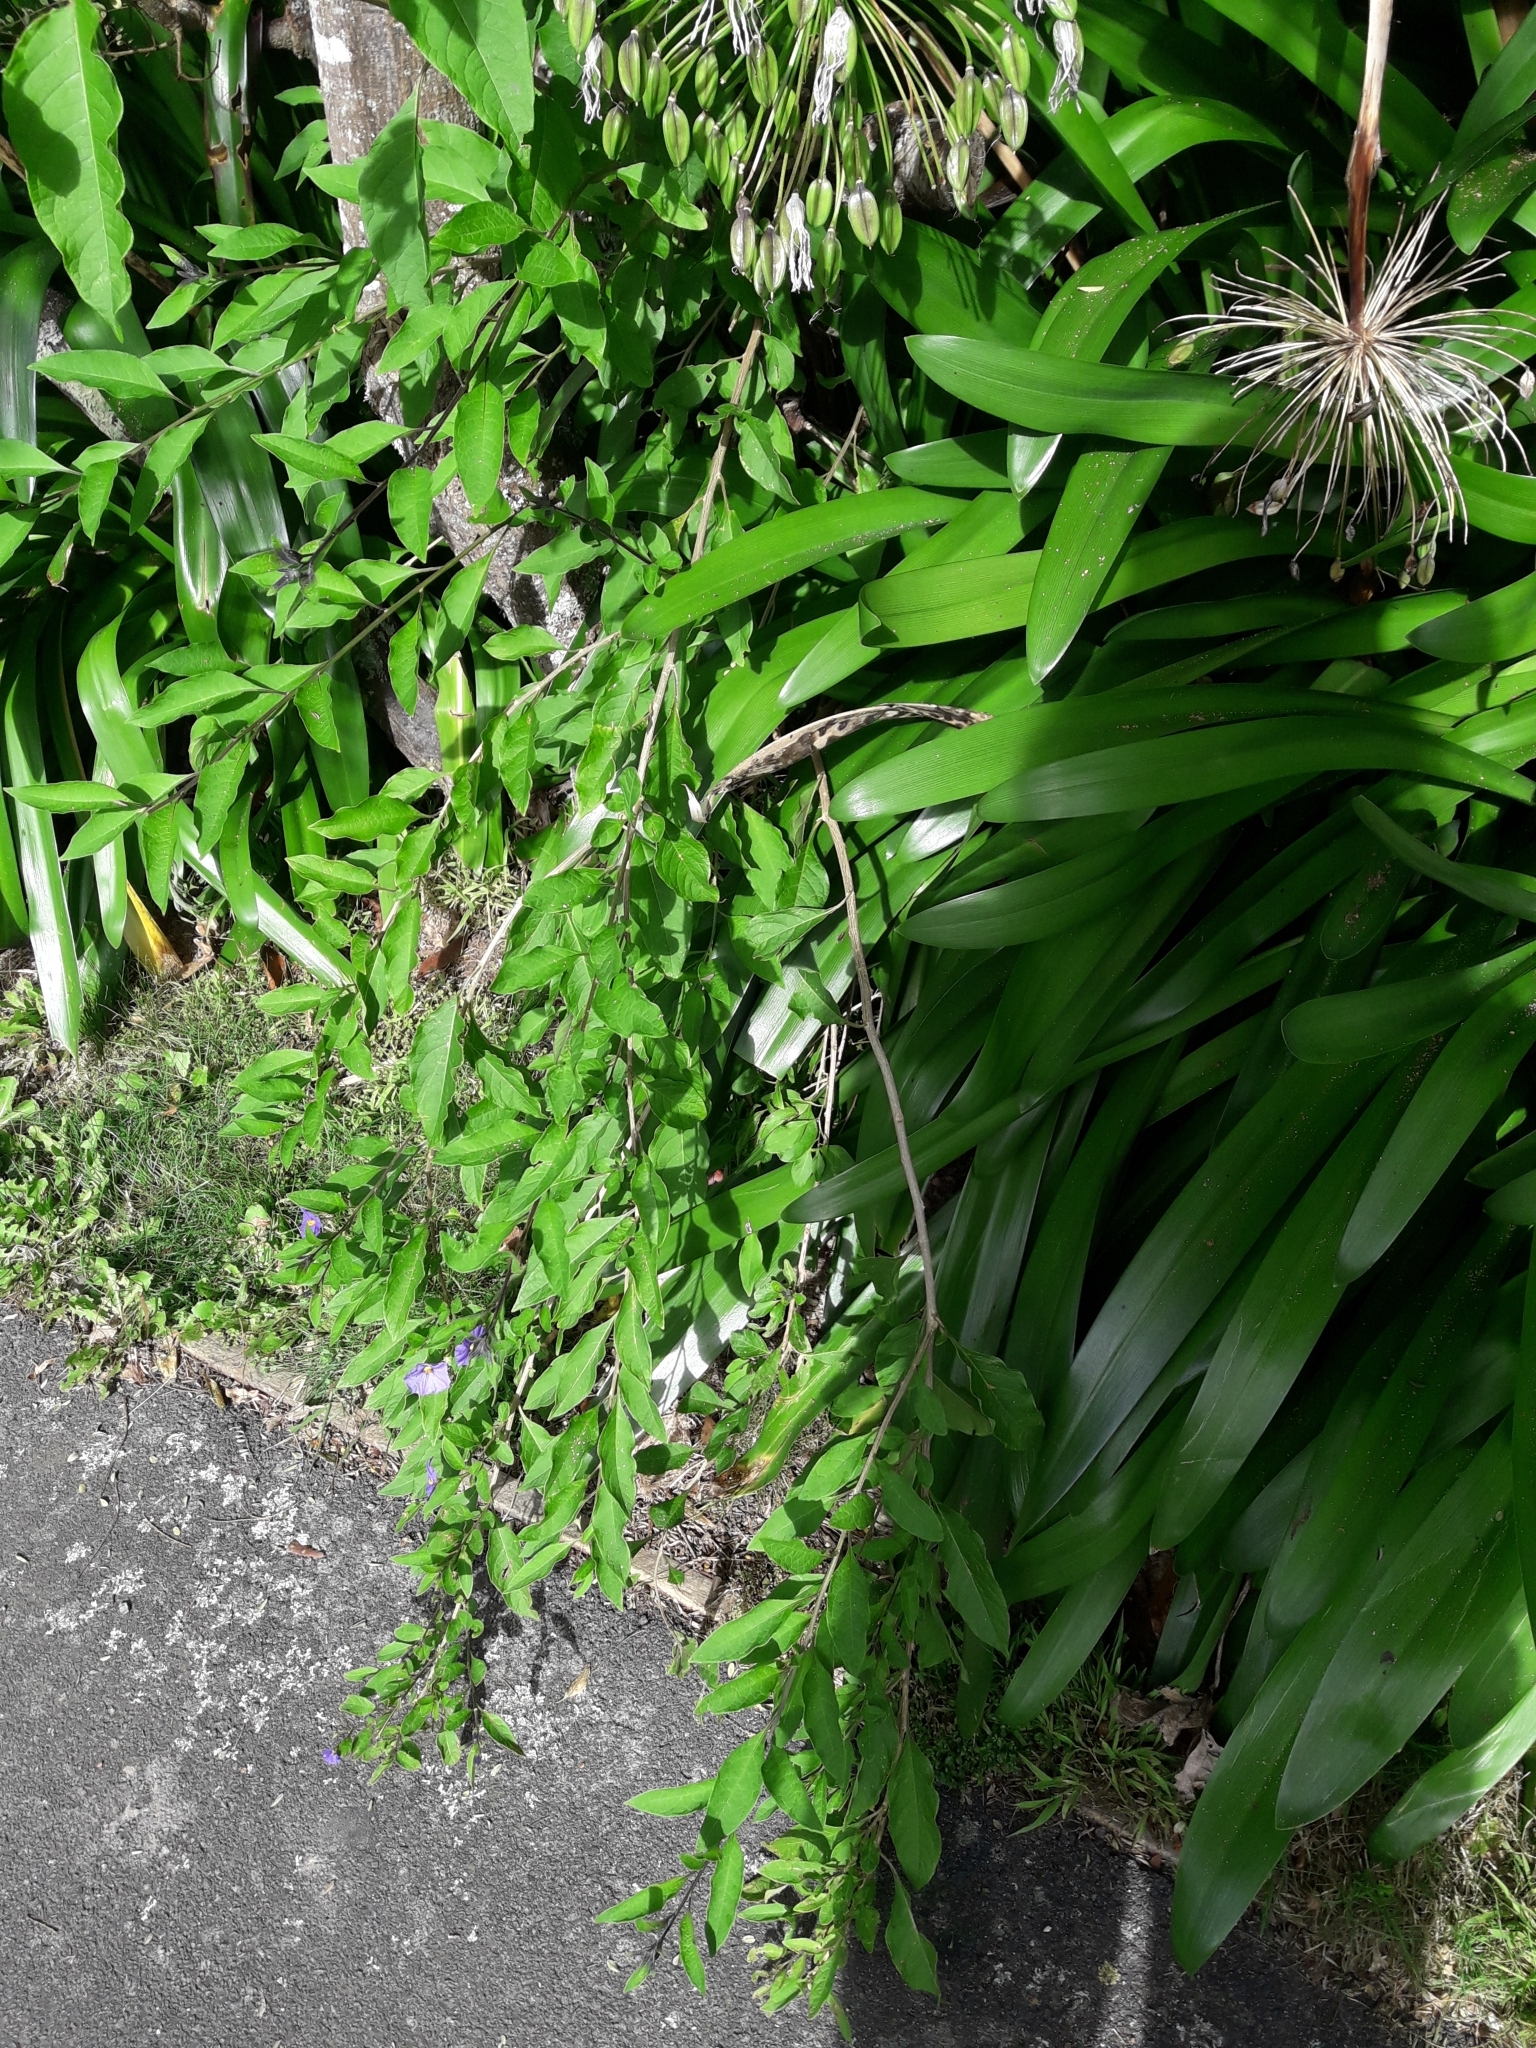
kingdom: Plantae
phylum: Tracheophyta
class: Magnoliopsida
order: Solanales
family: Solanaceae
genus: Lycianthes
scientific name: Lycianthes rantonnetii
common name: Blue potatobush
